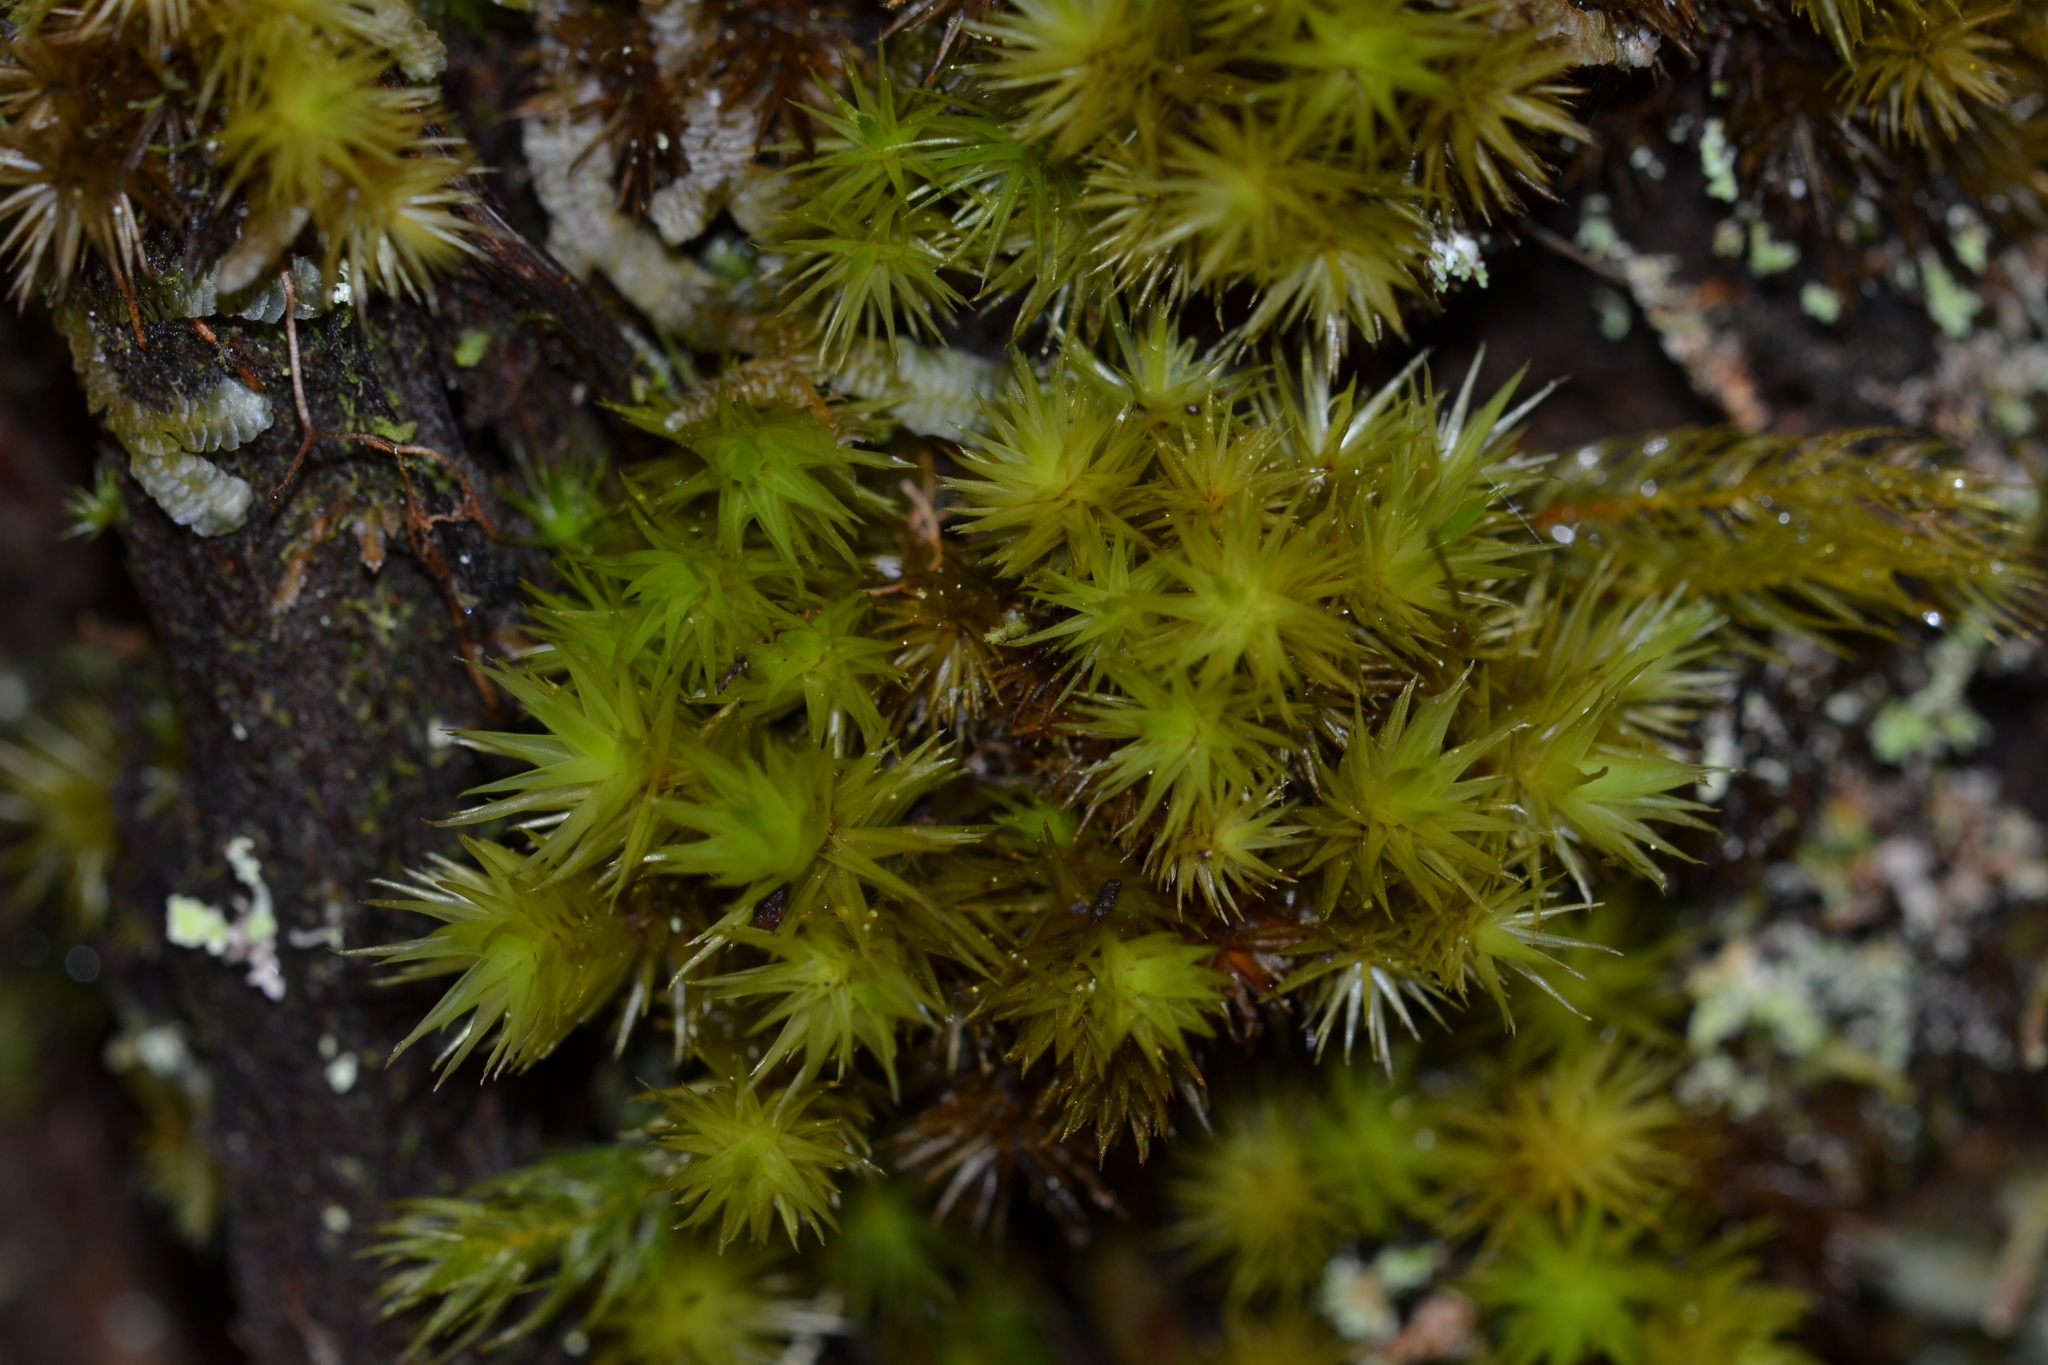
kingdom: Plantae
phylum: Bryophyta
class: Bryopsida
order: Dicranales
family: Dicranaceae
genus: Dicranum
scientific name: Dicranum speirophyllum
